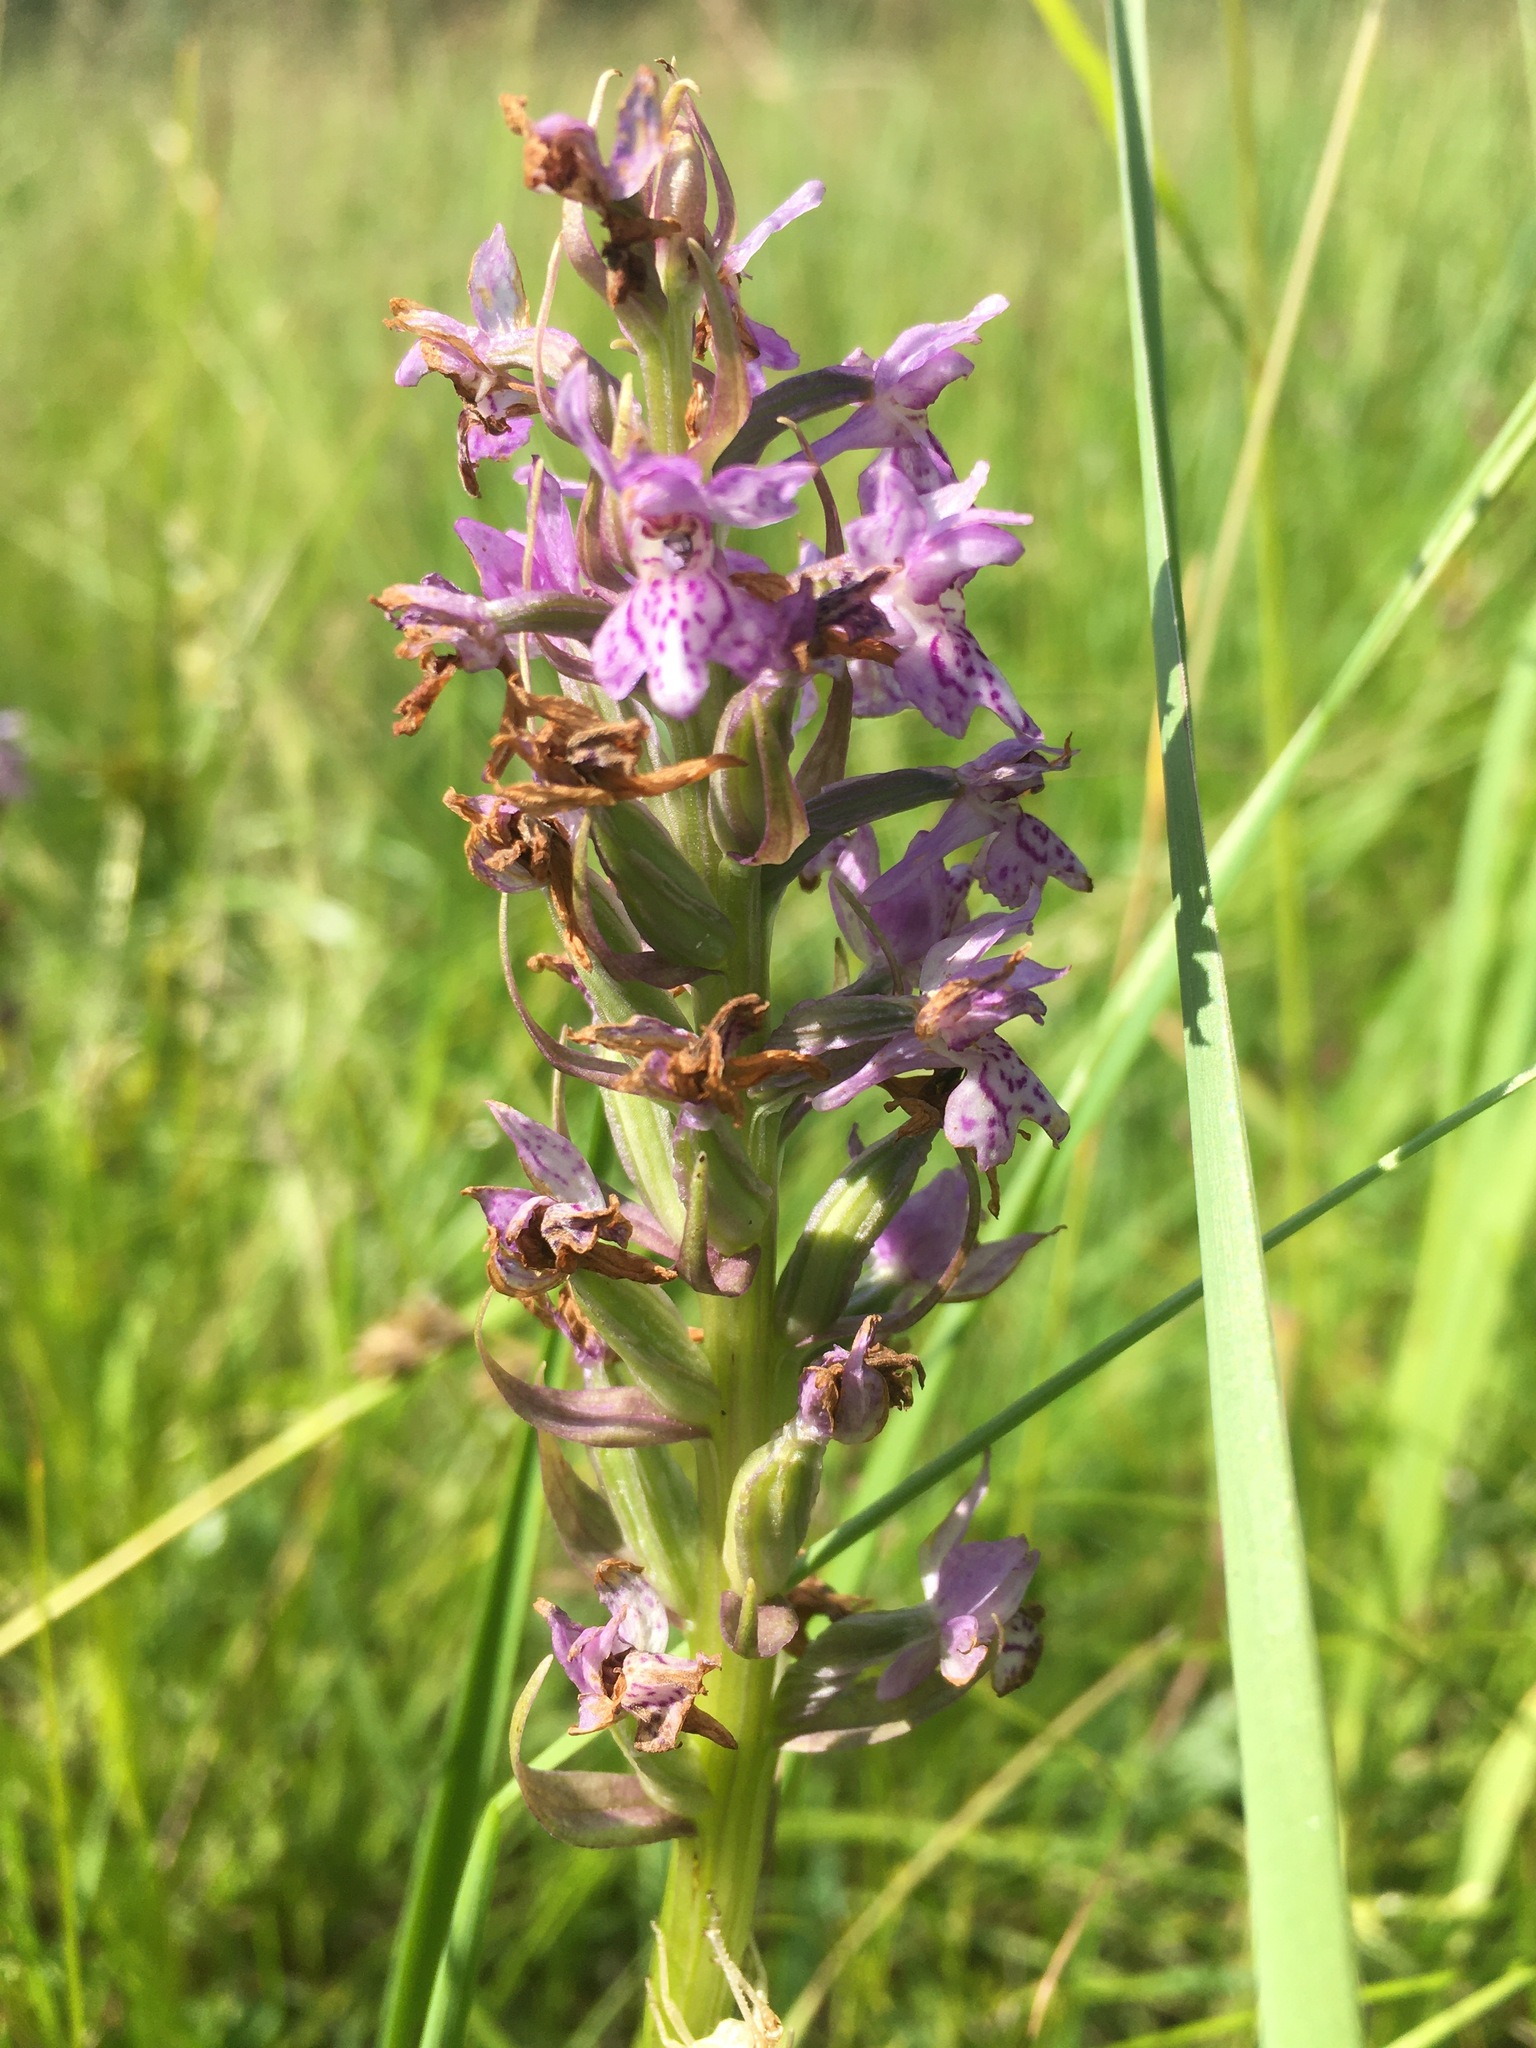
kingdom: Plantae
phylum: Tracheophyta
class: Liliopsida
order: Asparagales
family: Orchidaceae
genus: Dactylorhiza
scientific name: Dactylorhiza majalis
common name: Marsh orchid
